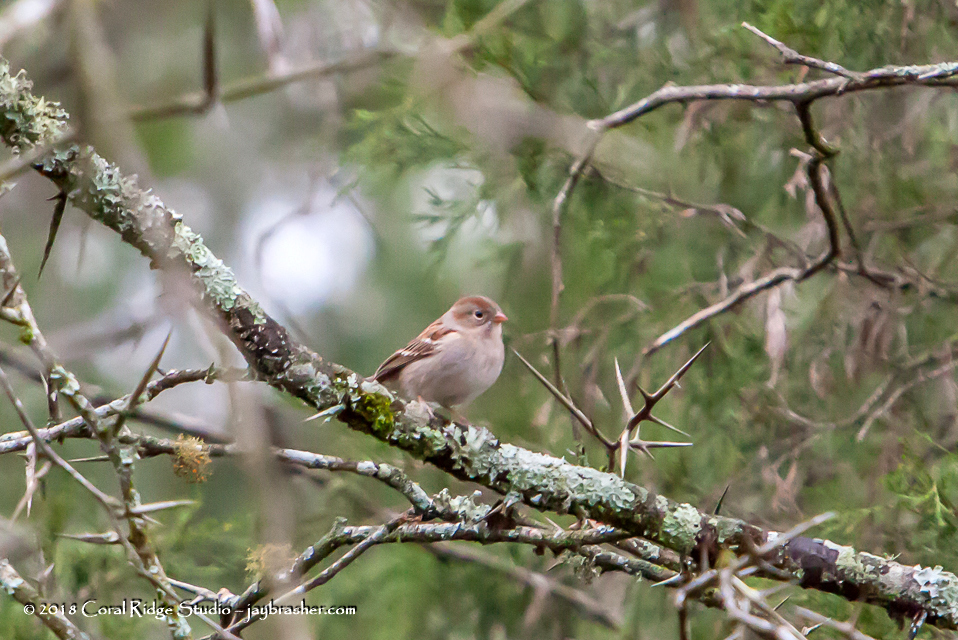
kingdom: Animalia
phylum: Chordata
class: Aves
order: Passeriformes
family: Passerellidae
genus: Spizella
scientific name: Spizella pusilla
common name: Field sparrow
